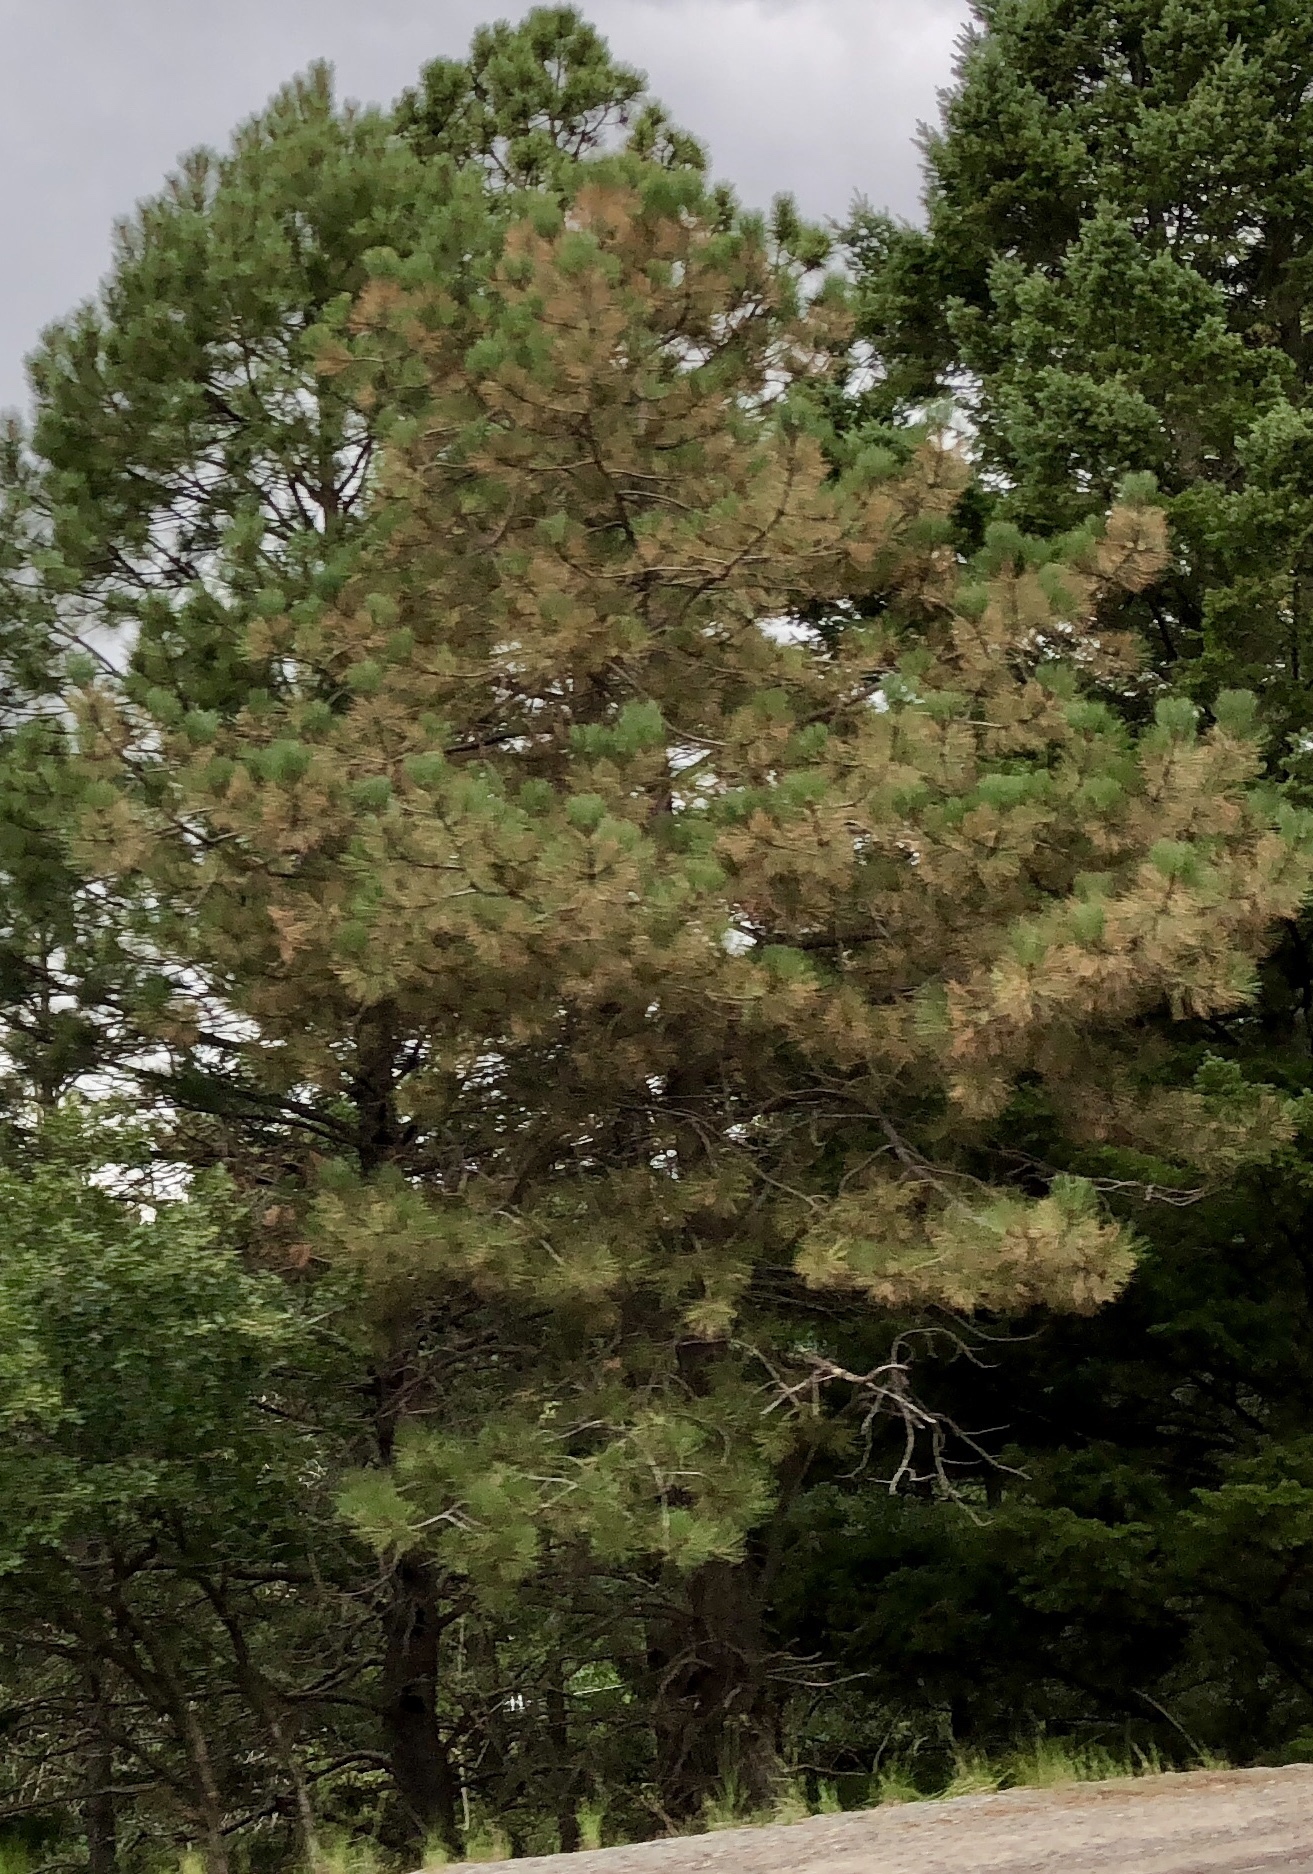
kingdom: Plantae
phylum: Tracheophyta
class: Pinopsida
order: Pinales
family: Pinaceae
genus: Pinus
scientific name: Pinus ponderosa
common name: Western yellow-pine
